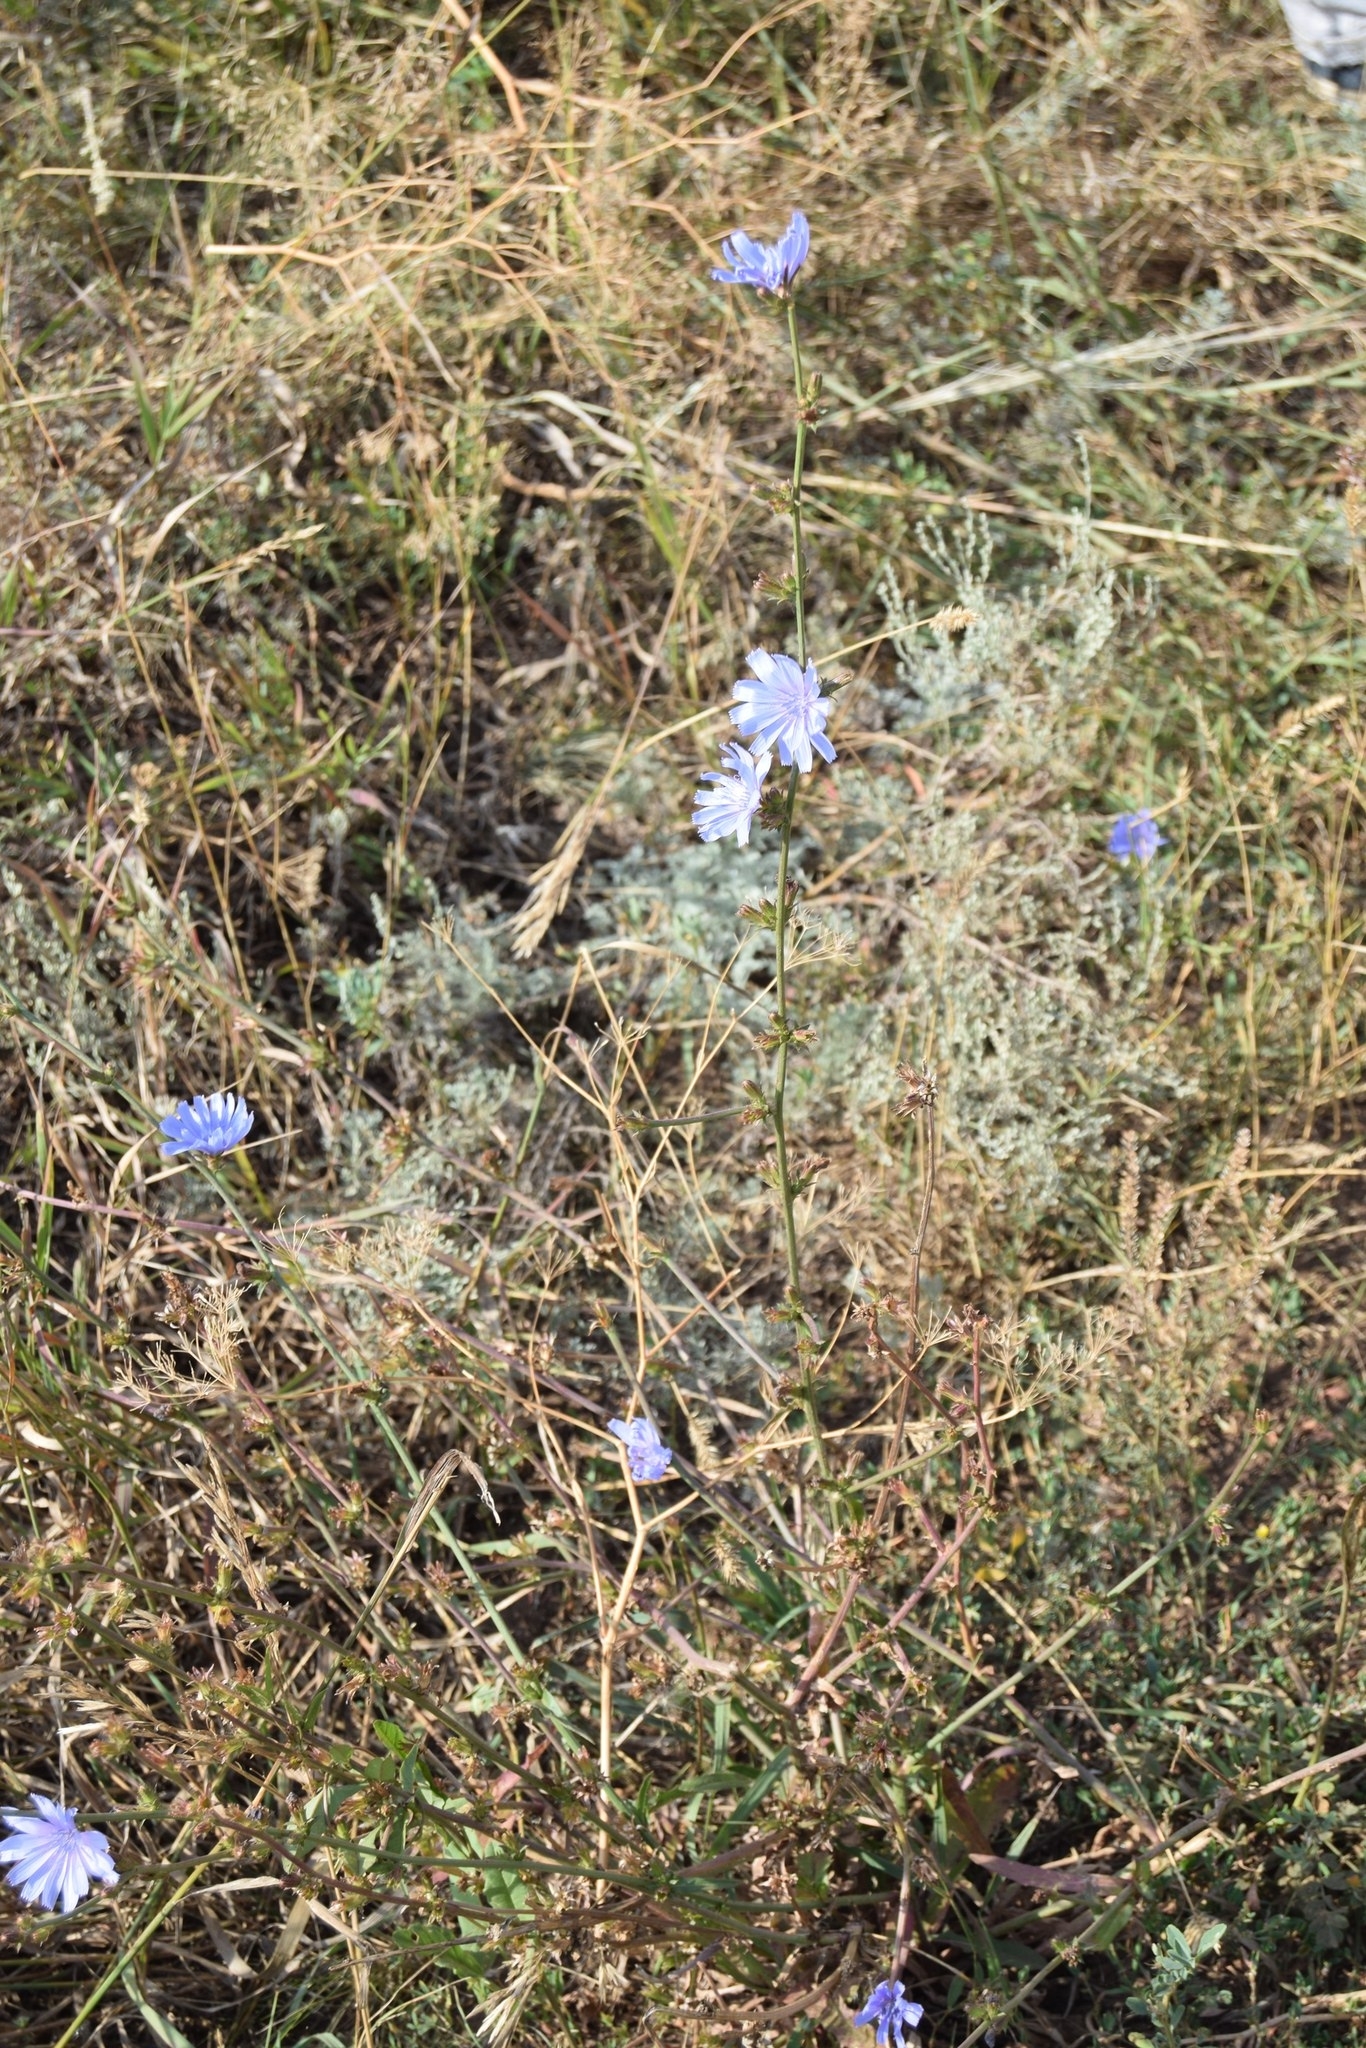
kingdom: Plantae
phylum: Tracheophyta
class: Magnoliopsida
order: Asterales
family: Asteraceae
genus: Cichorium
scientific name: Cichorium intybus
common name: Chicory
